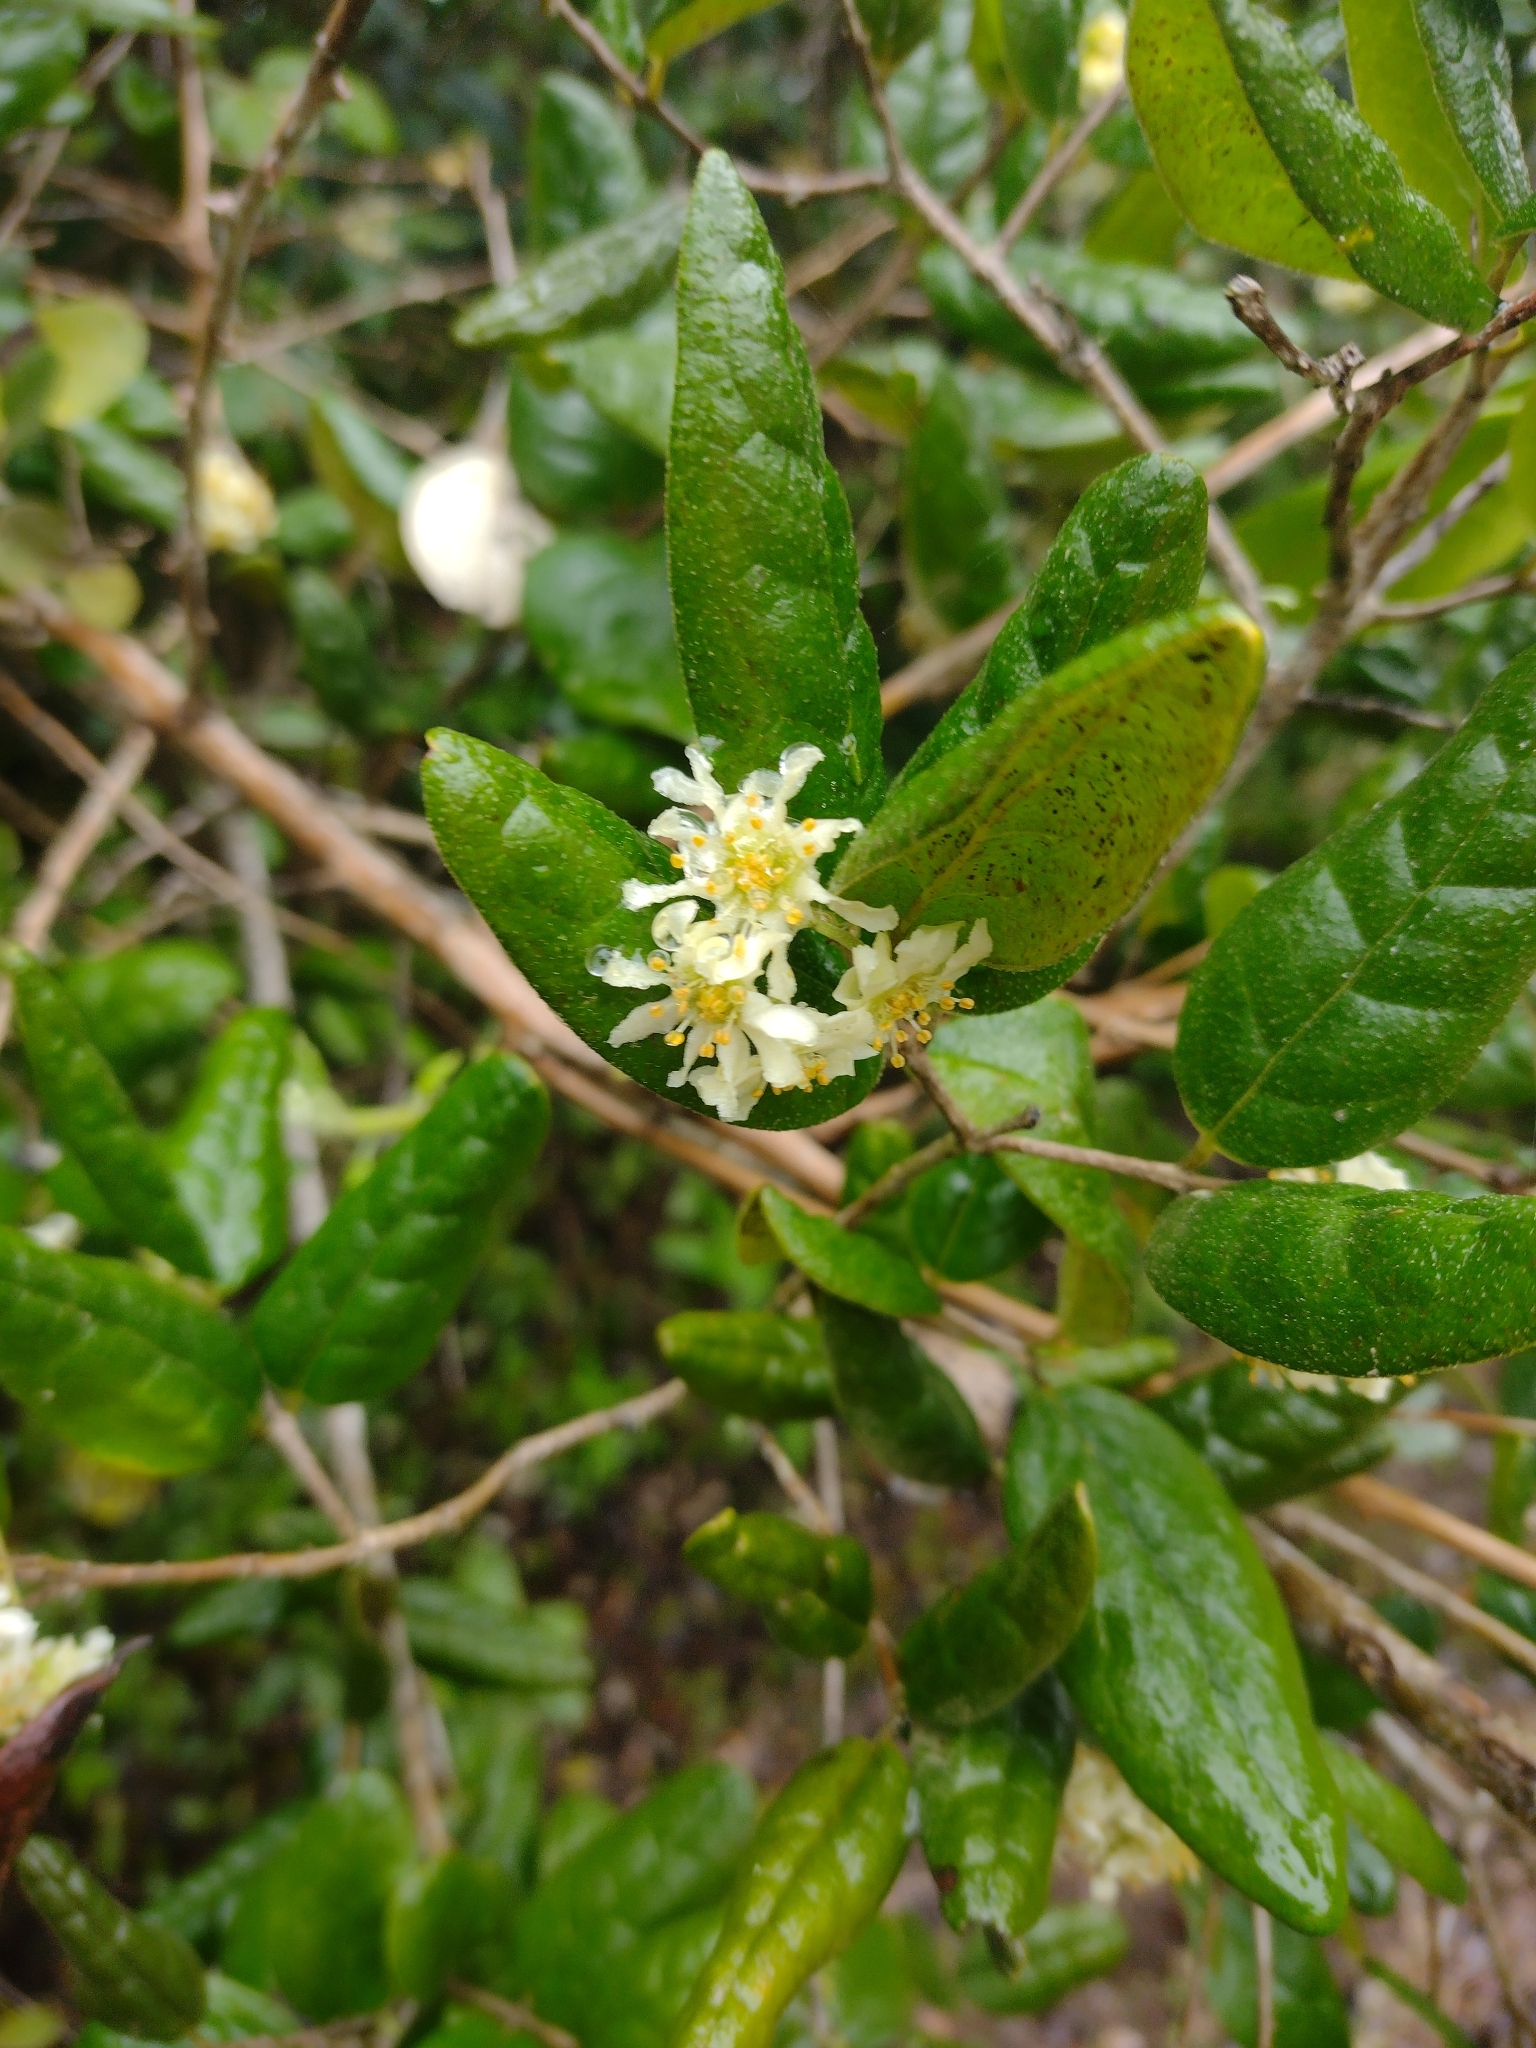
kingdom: Plantae
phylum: Tracheophyta
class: Magnoliopsida
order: Laurales
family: Monimiaceae
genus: Peumus
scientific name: Peumus boldus
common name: Boldo
